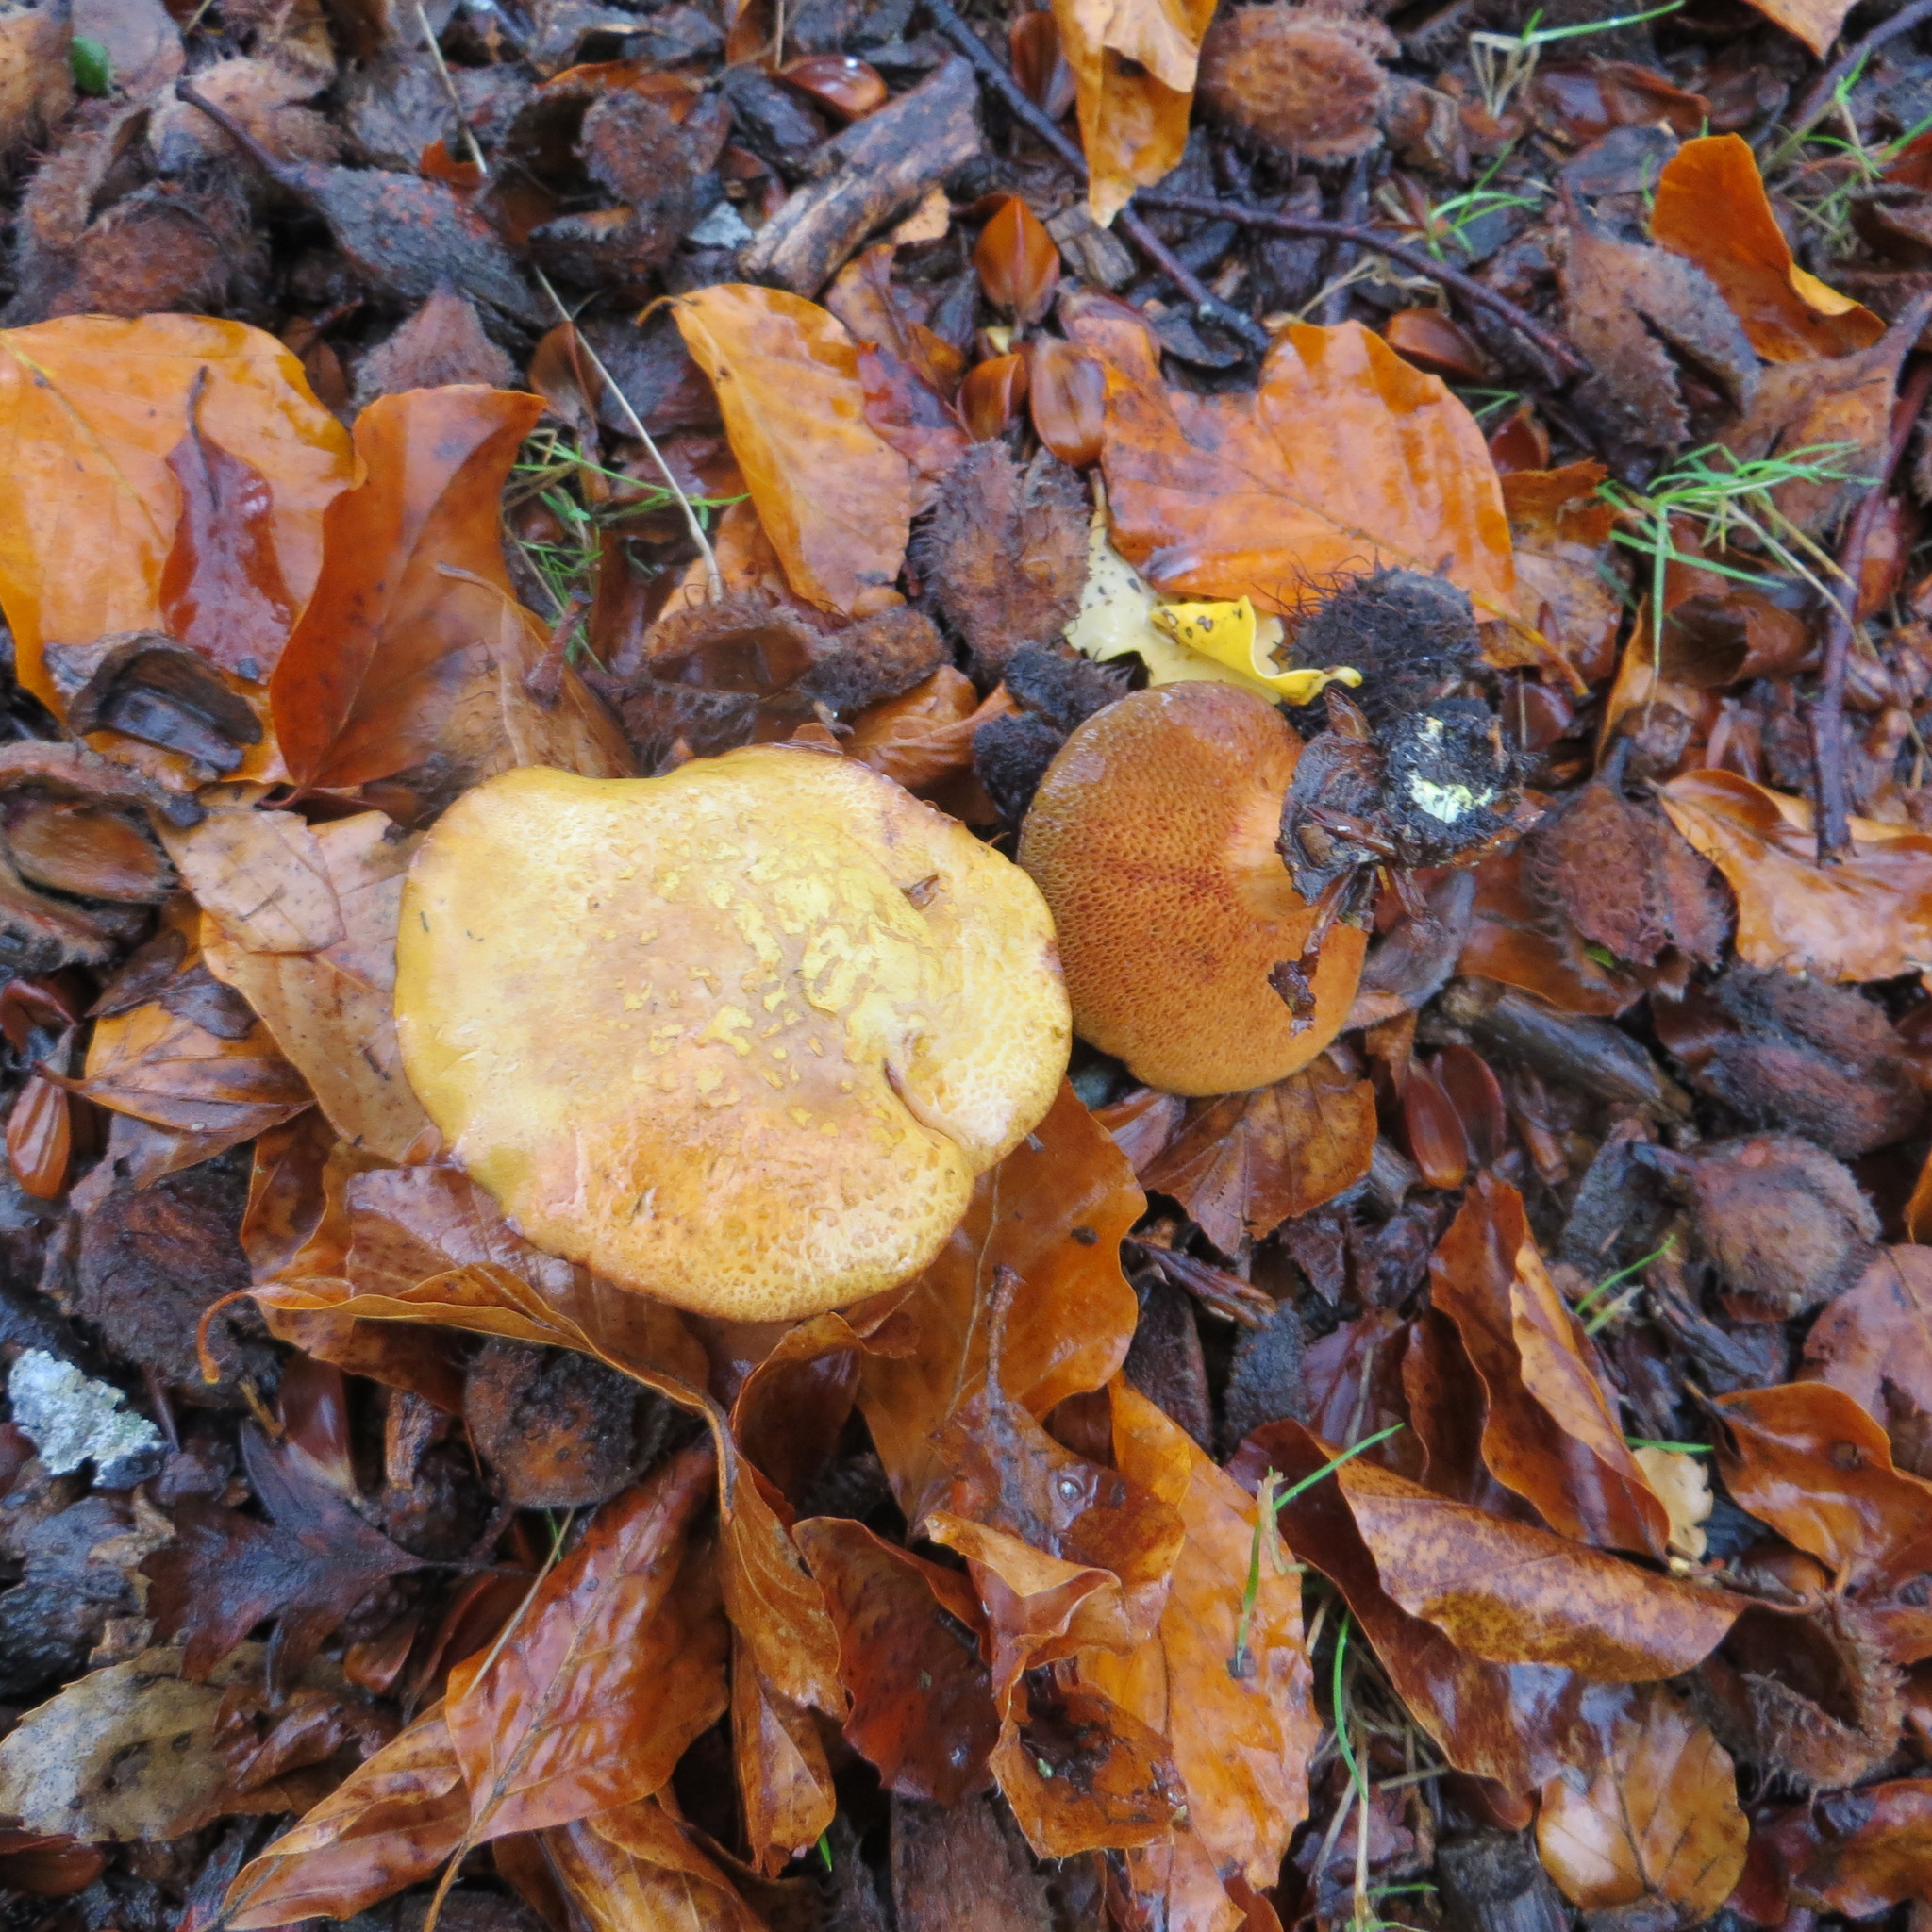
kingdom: Fungi
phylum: Basidiomycota
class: Agaricomycetes
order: Boletales
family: Boletaceae
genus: Chalciporus
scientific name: Chalciporus piperatus
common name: Peppery bolete
